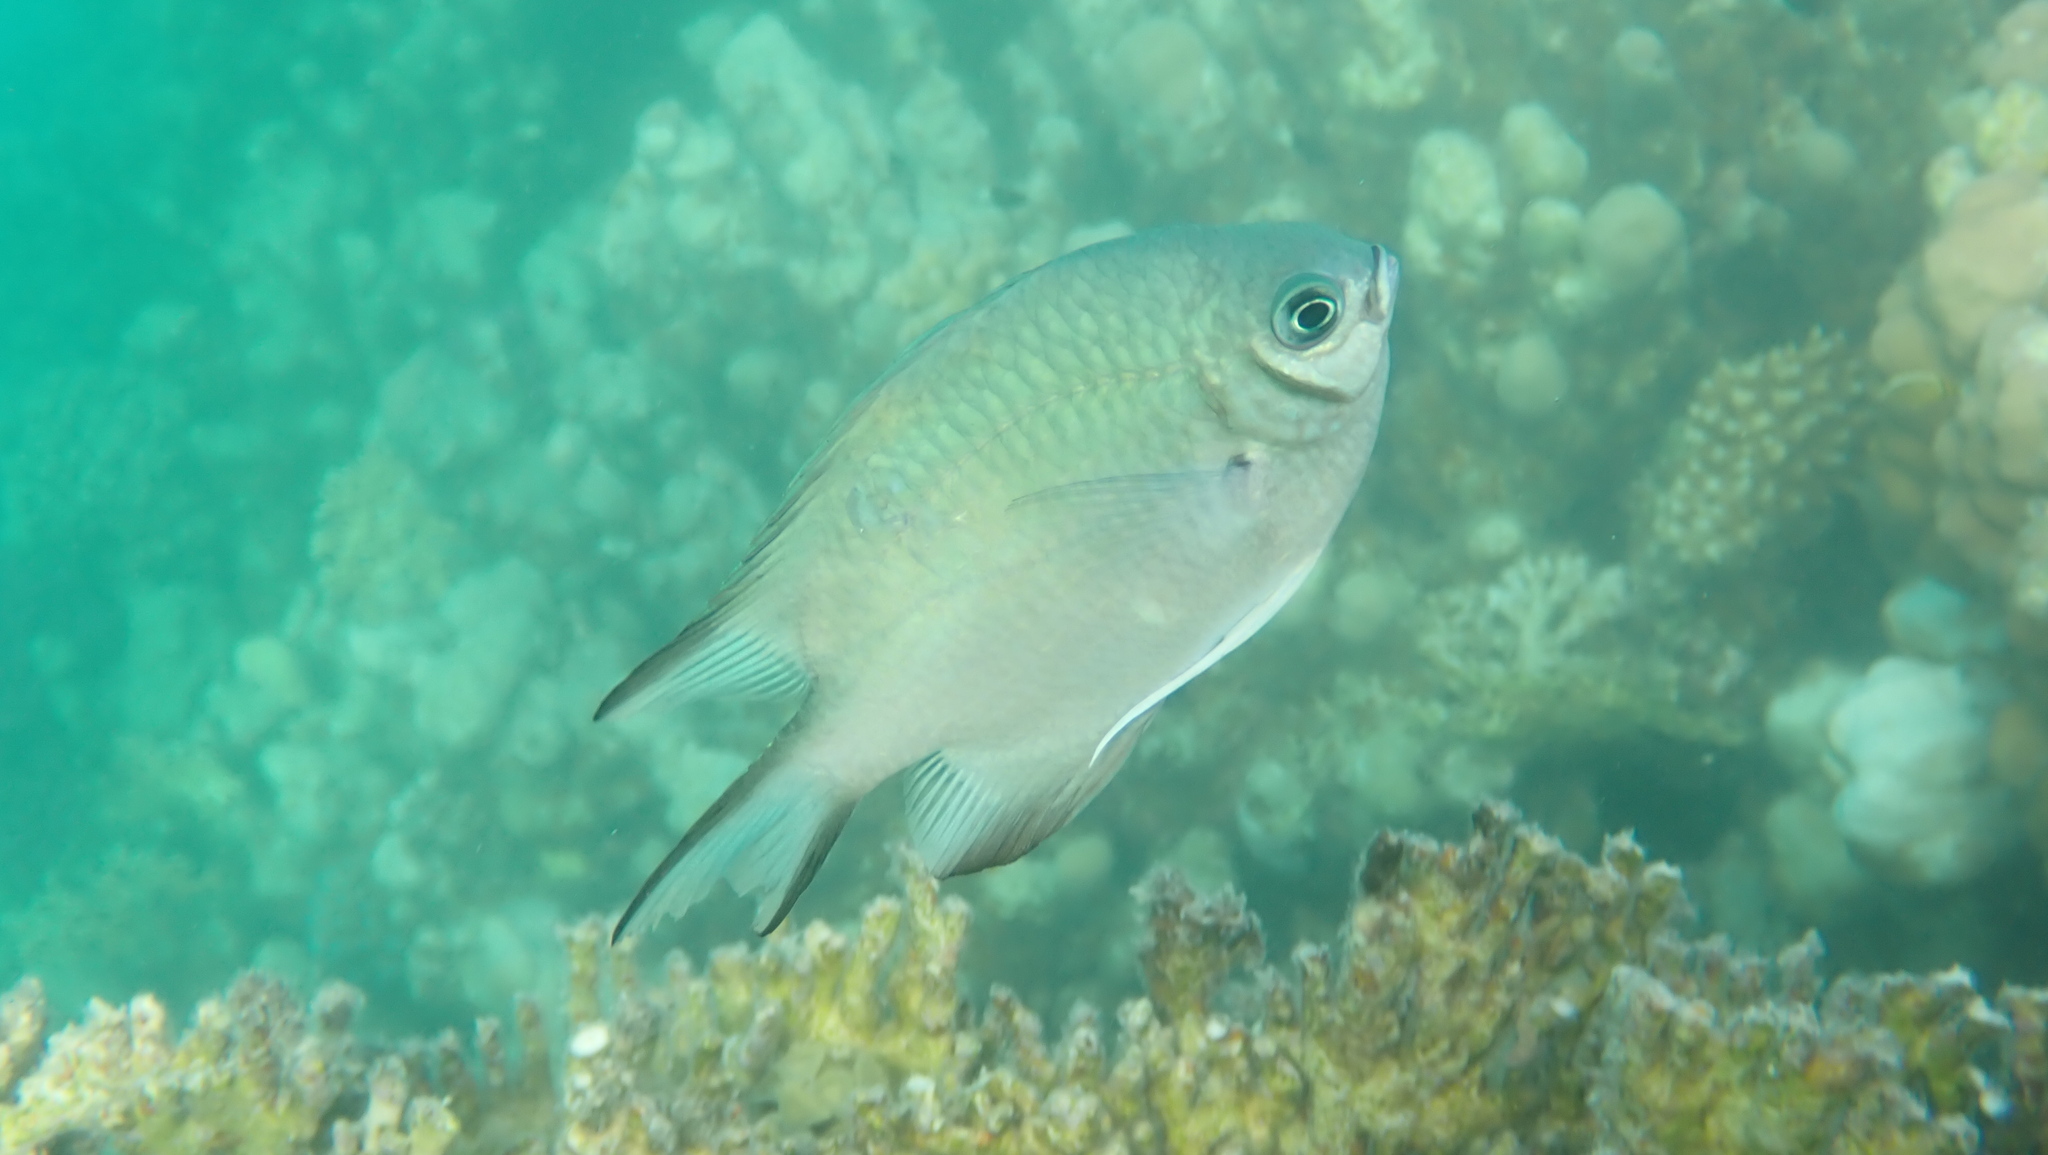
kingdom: Animalia
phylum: Chordata
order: Perciformes
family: Pomacentridae
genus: Amblyglyphidodon
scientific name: Amblyglyphidodon indicus
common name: Maldives damselfish
